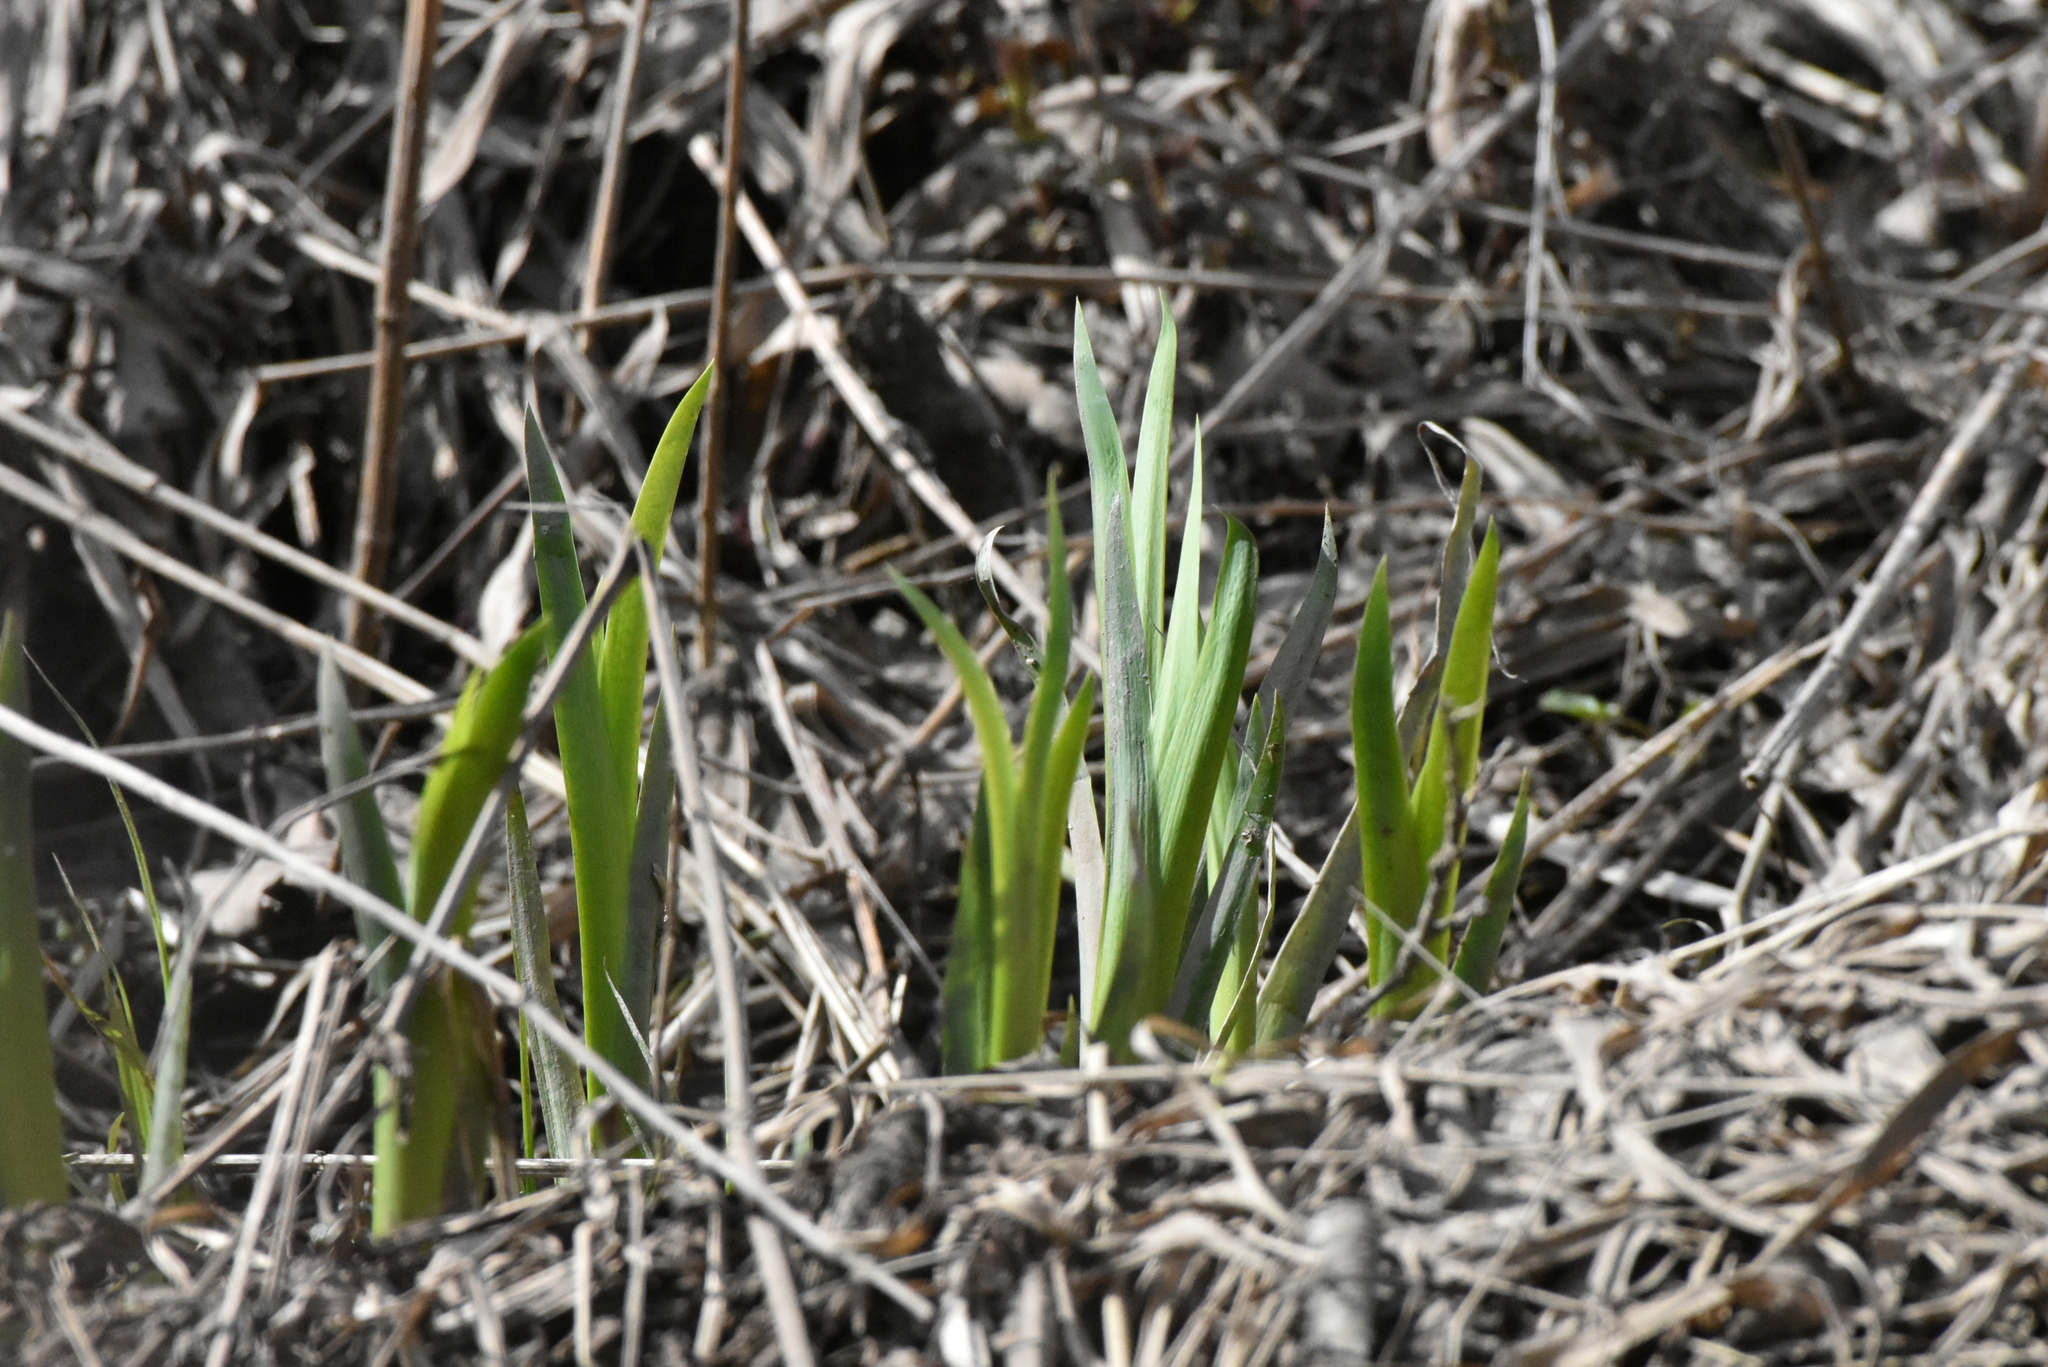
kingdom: Plantae
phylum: Tracheophyta
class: Liliopsida
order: Asparagales
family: Iridaceae
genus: Iris
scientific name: Iris pseudacorus
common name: Yellow flag
